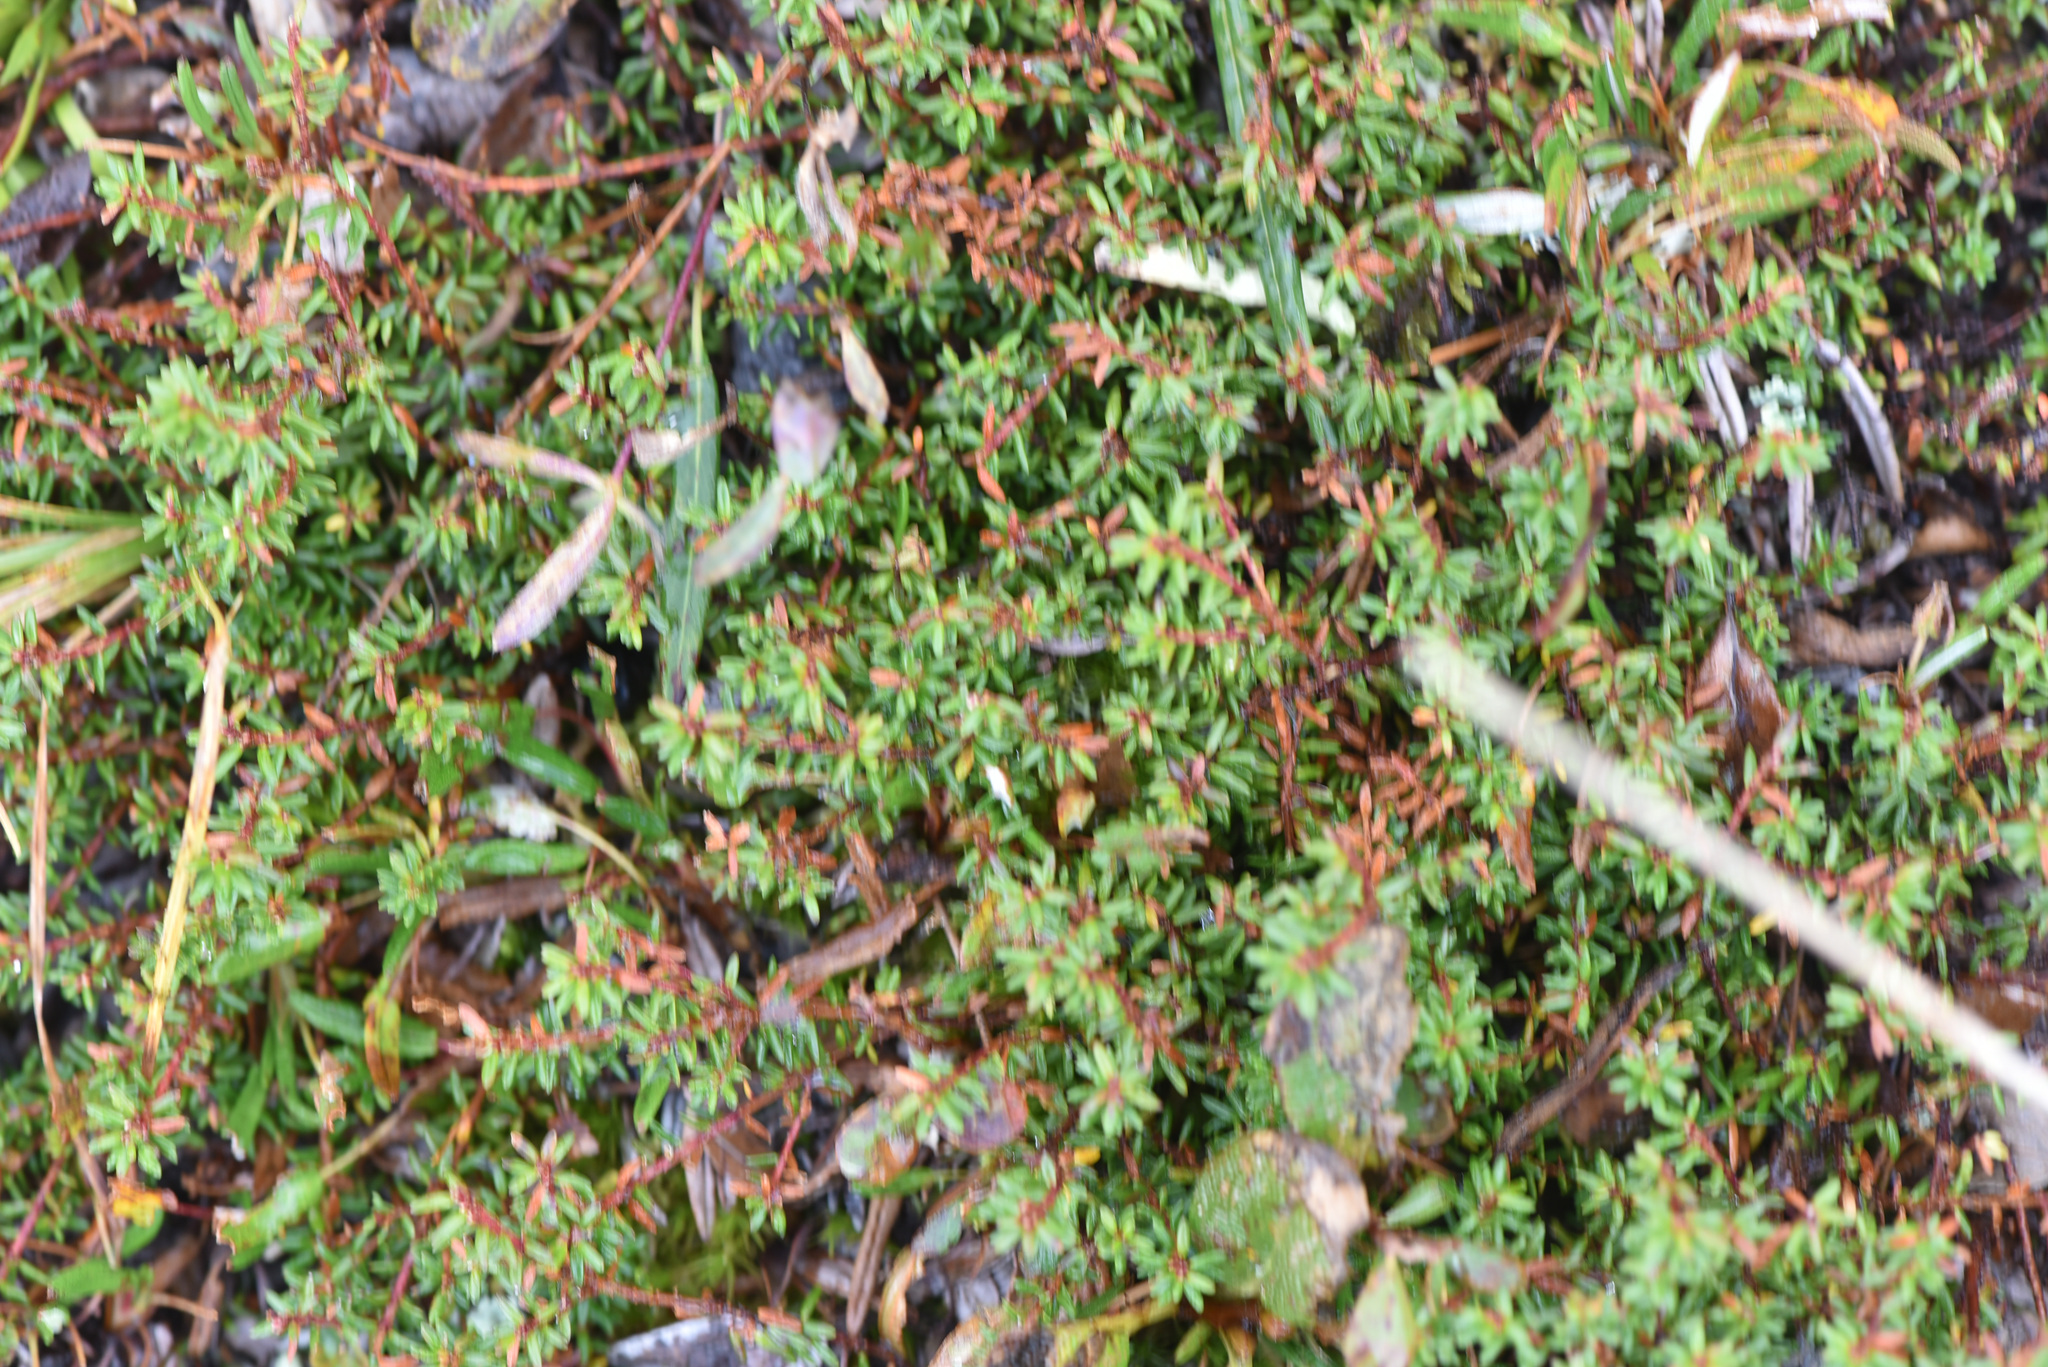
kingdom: Plantae
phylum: Tracheophyta
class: Magnoliopsida
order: Ericales
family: Ericaceae
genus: Empetrum
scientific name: Empetrum nigrum
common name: Black crowberry
